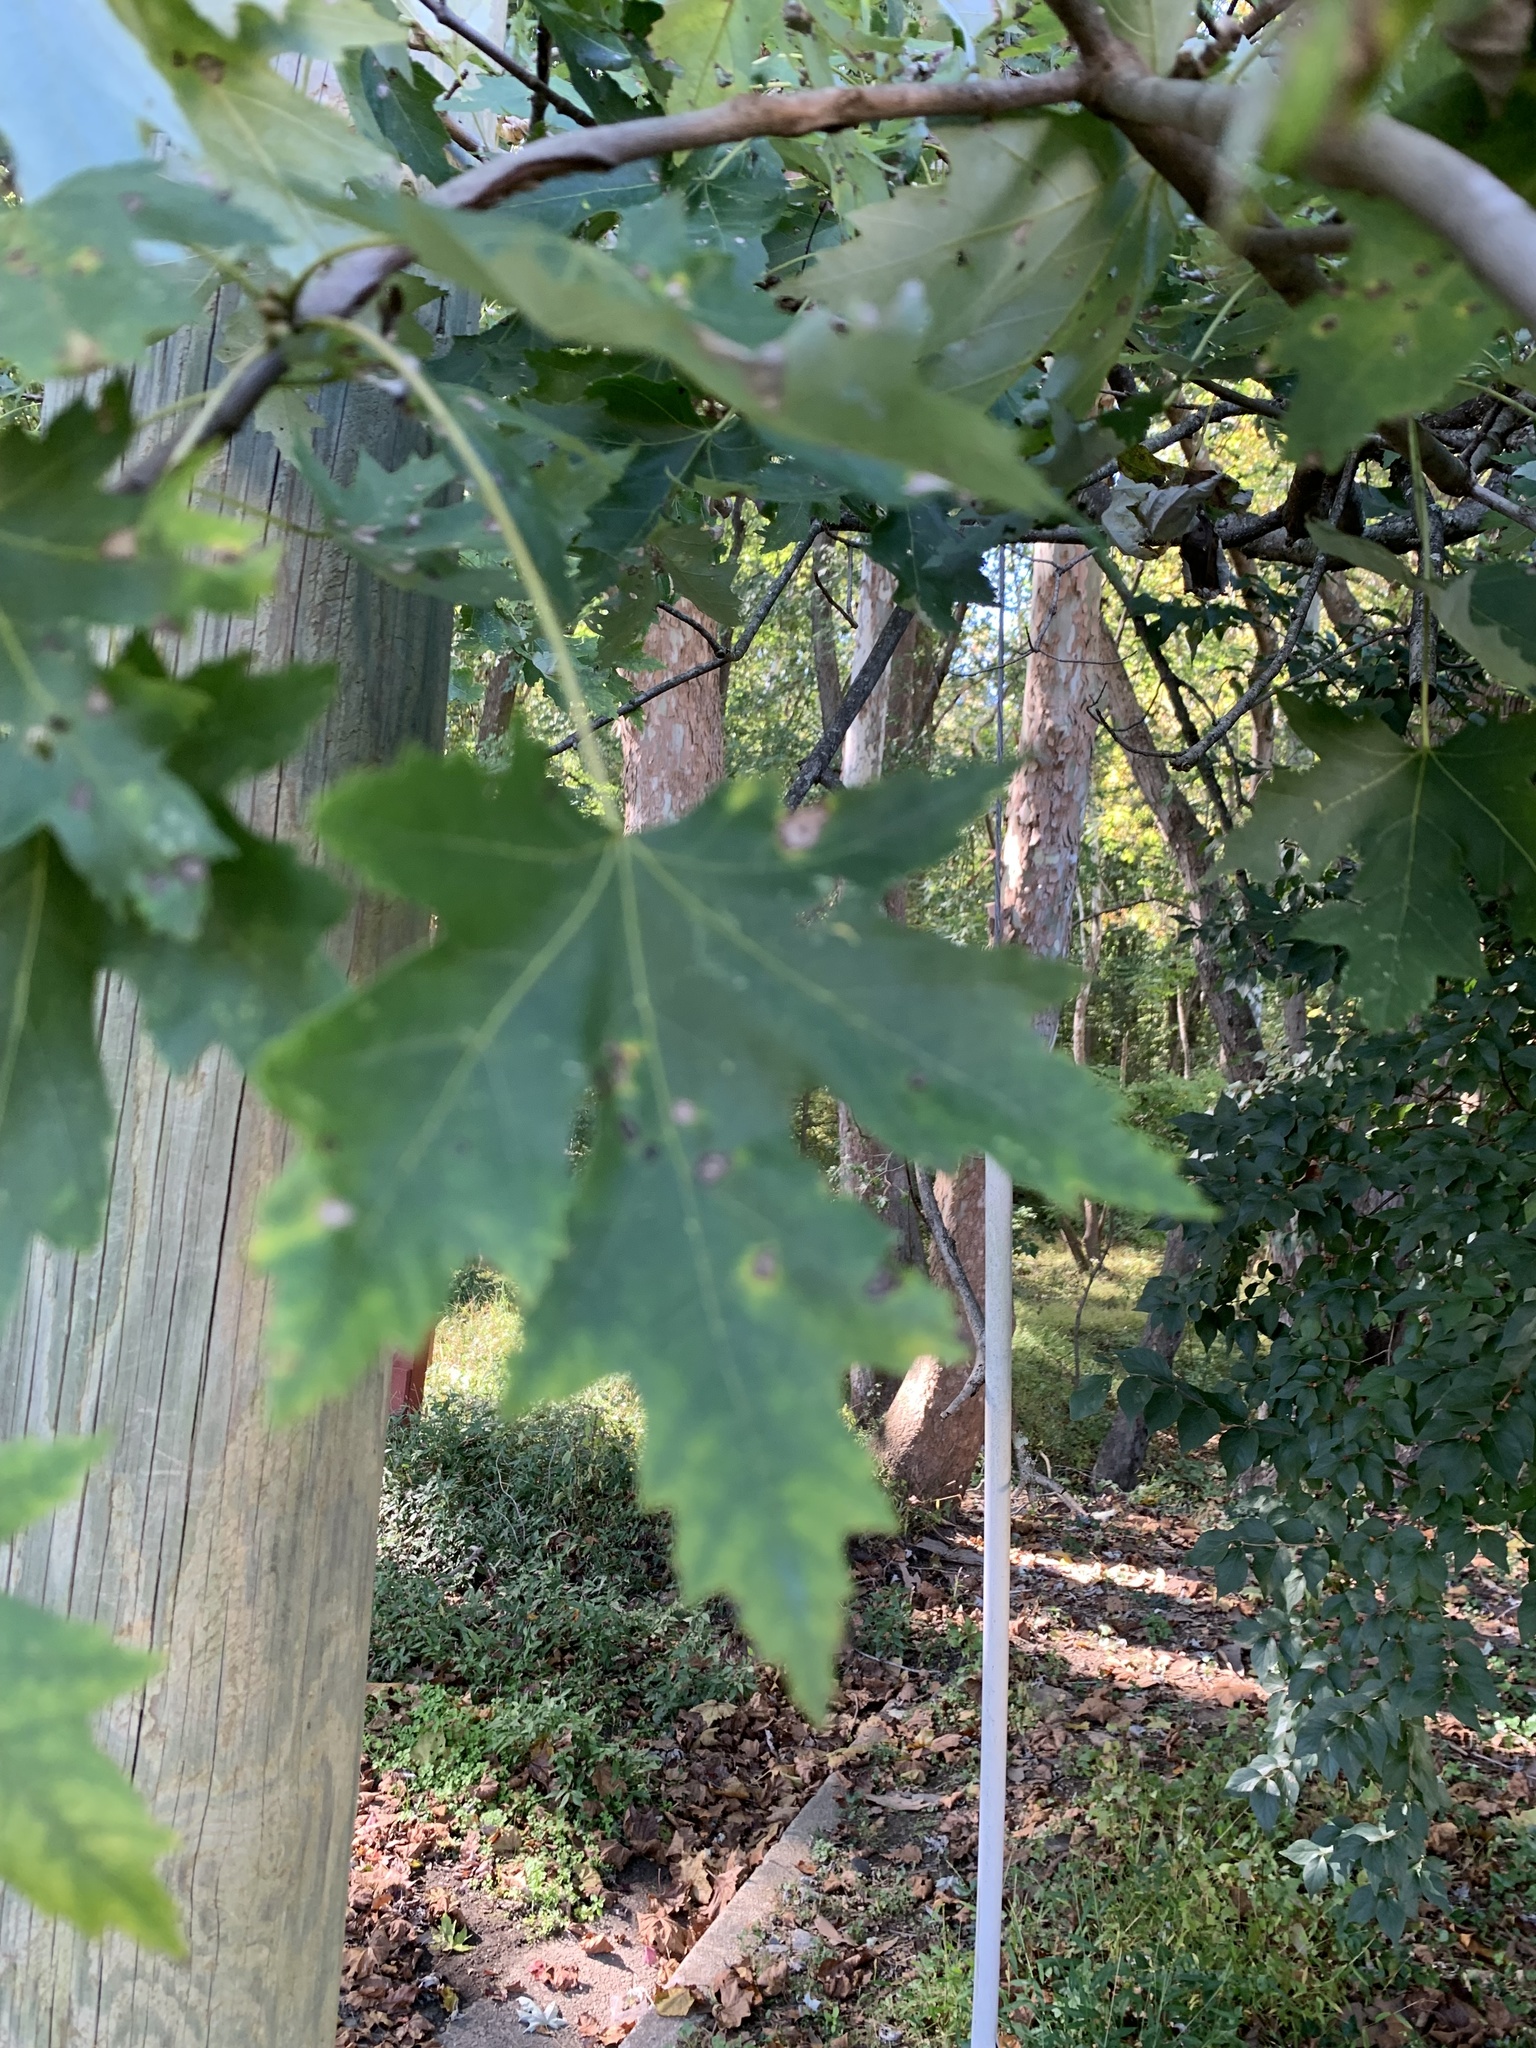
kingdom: Plantae
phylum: Tracheophyta
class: Magnoliopsida
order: Sapindales
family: Sapindaceae
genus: Acer
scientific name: Acer saccharinum
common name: Silver maple
